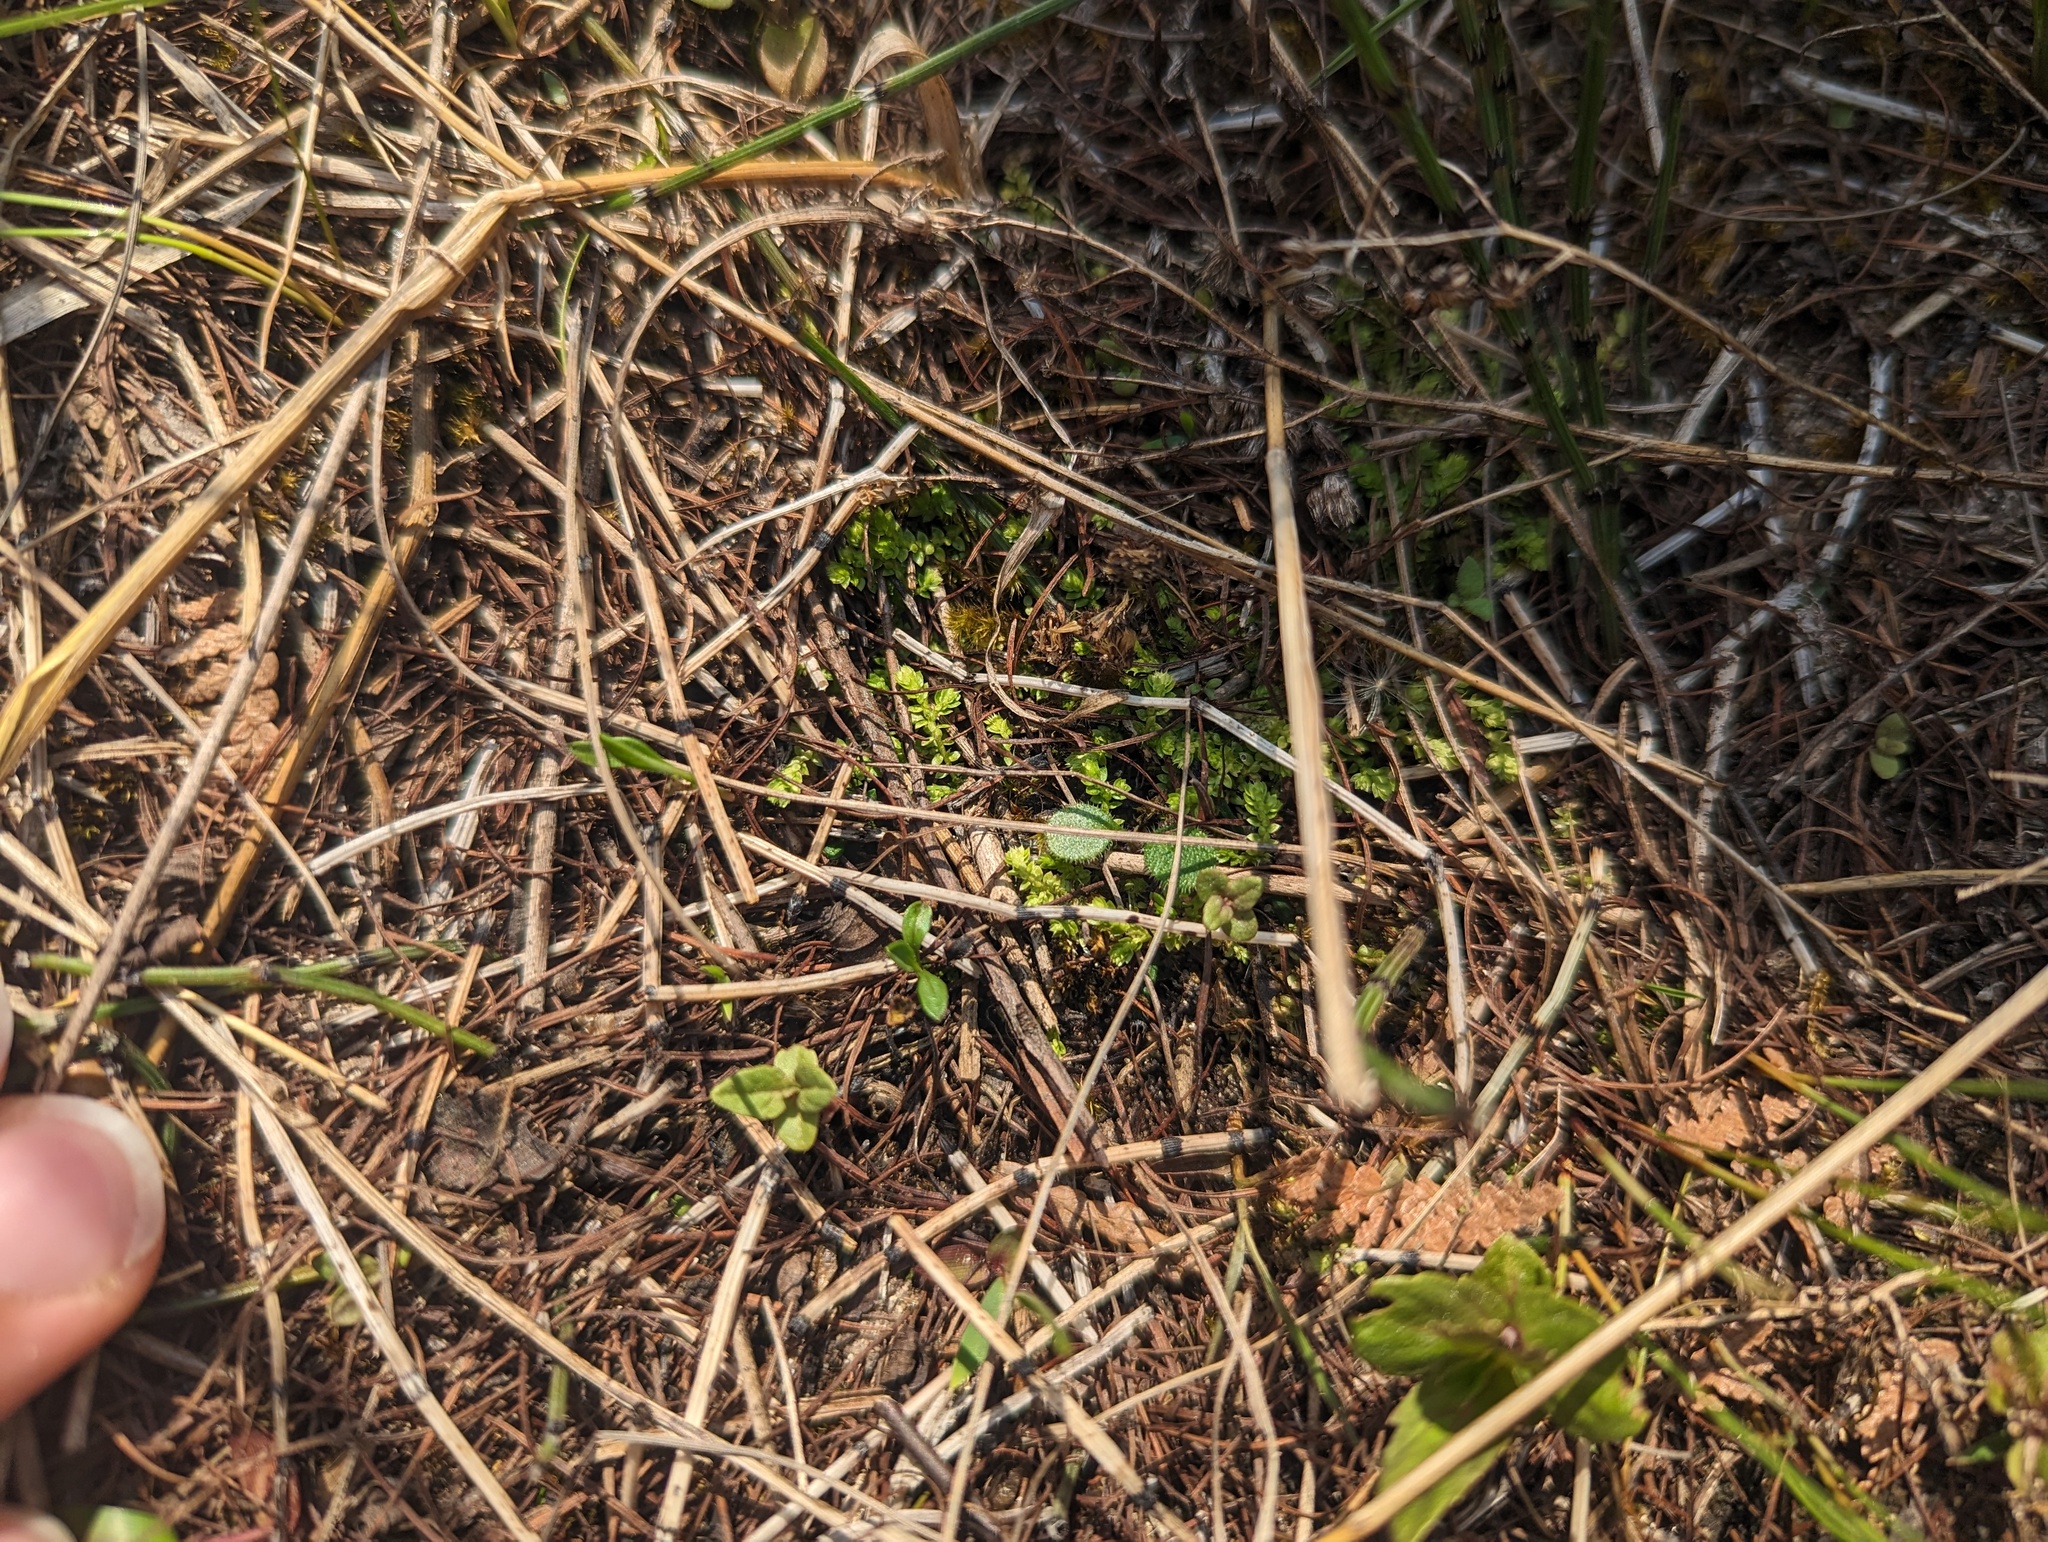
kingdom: Plantae
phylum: Tracheophyta
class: Lycopodiopsida
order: Selaginellales
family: Selaginellaceae
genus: Selaginella
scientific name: Selaginella eclipes
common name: Buck's meadow spikemoss
